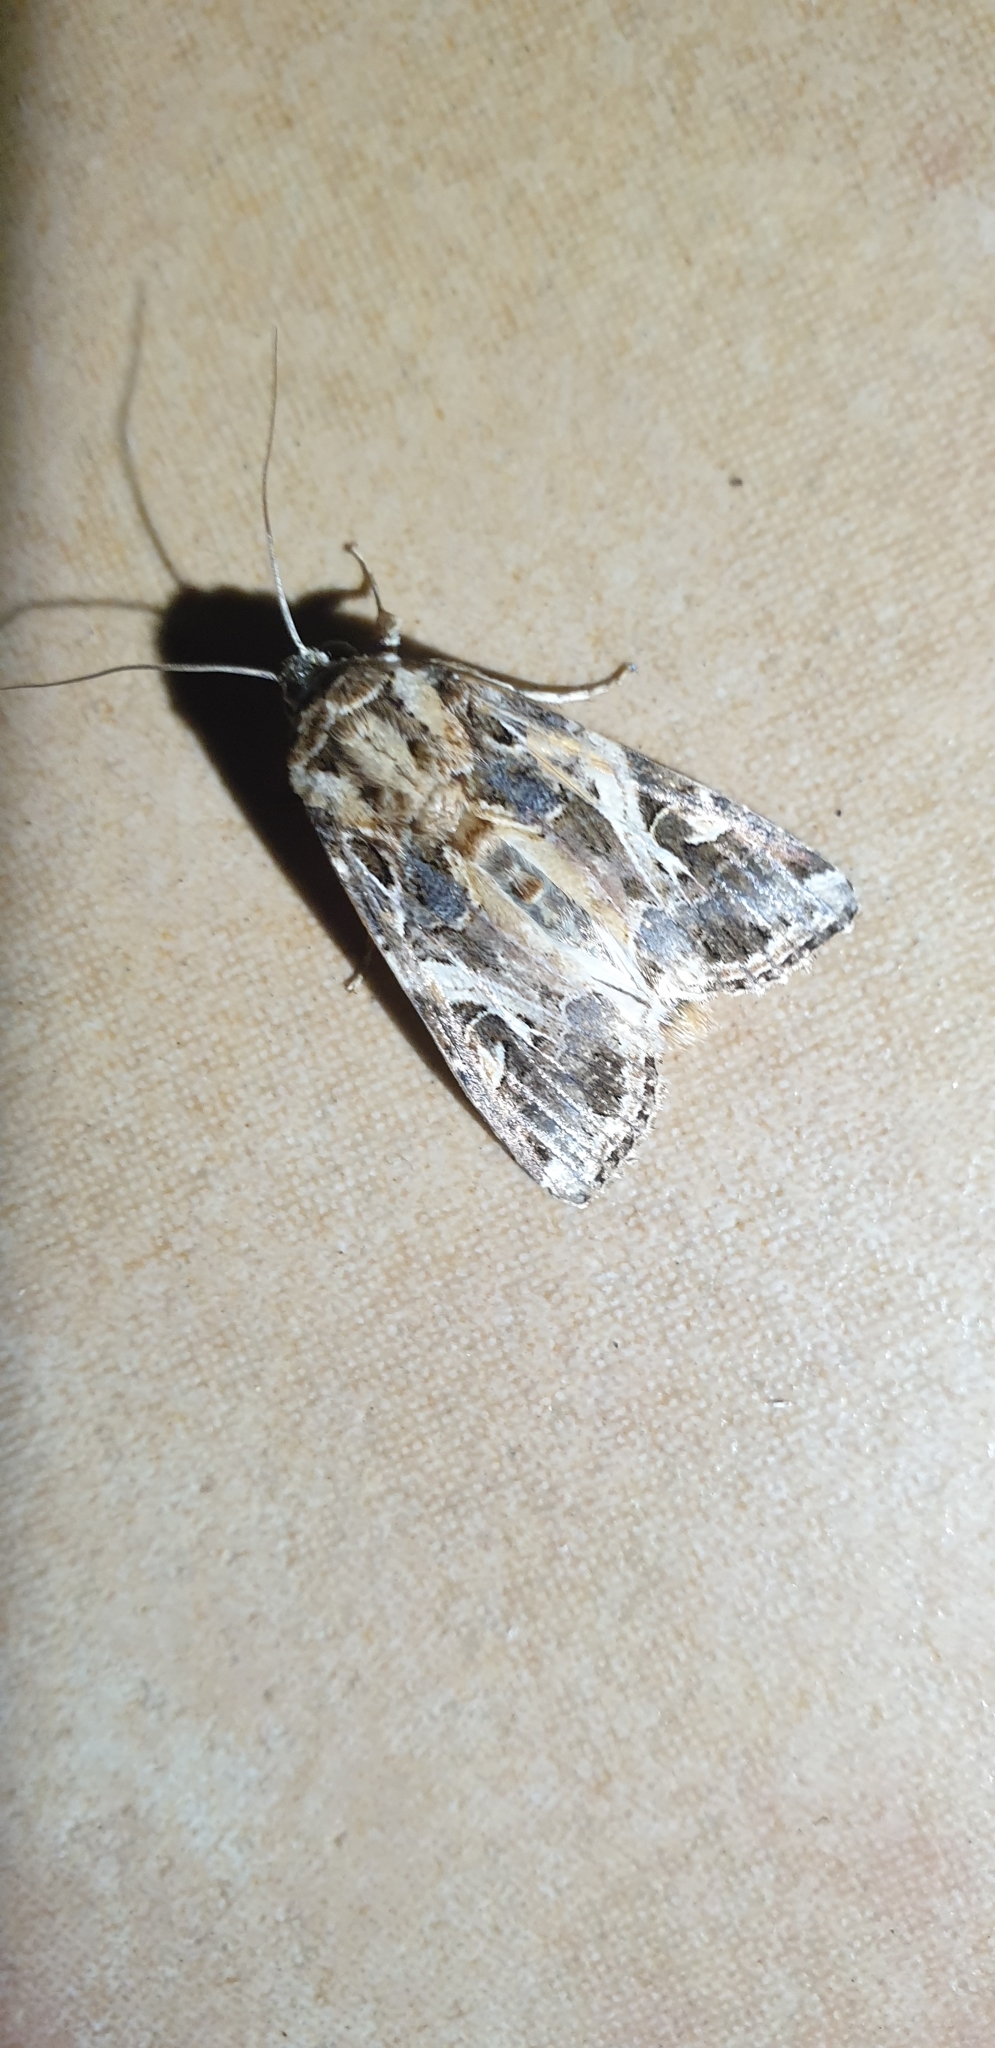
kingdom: Animalia
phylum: Arthropoda
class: Insecta
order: Lepidoptera
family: Noctuidae
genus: Spodoptera
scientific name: Spodoptera litura
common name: Asian cotton leafworm
